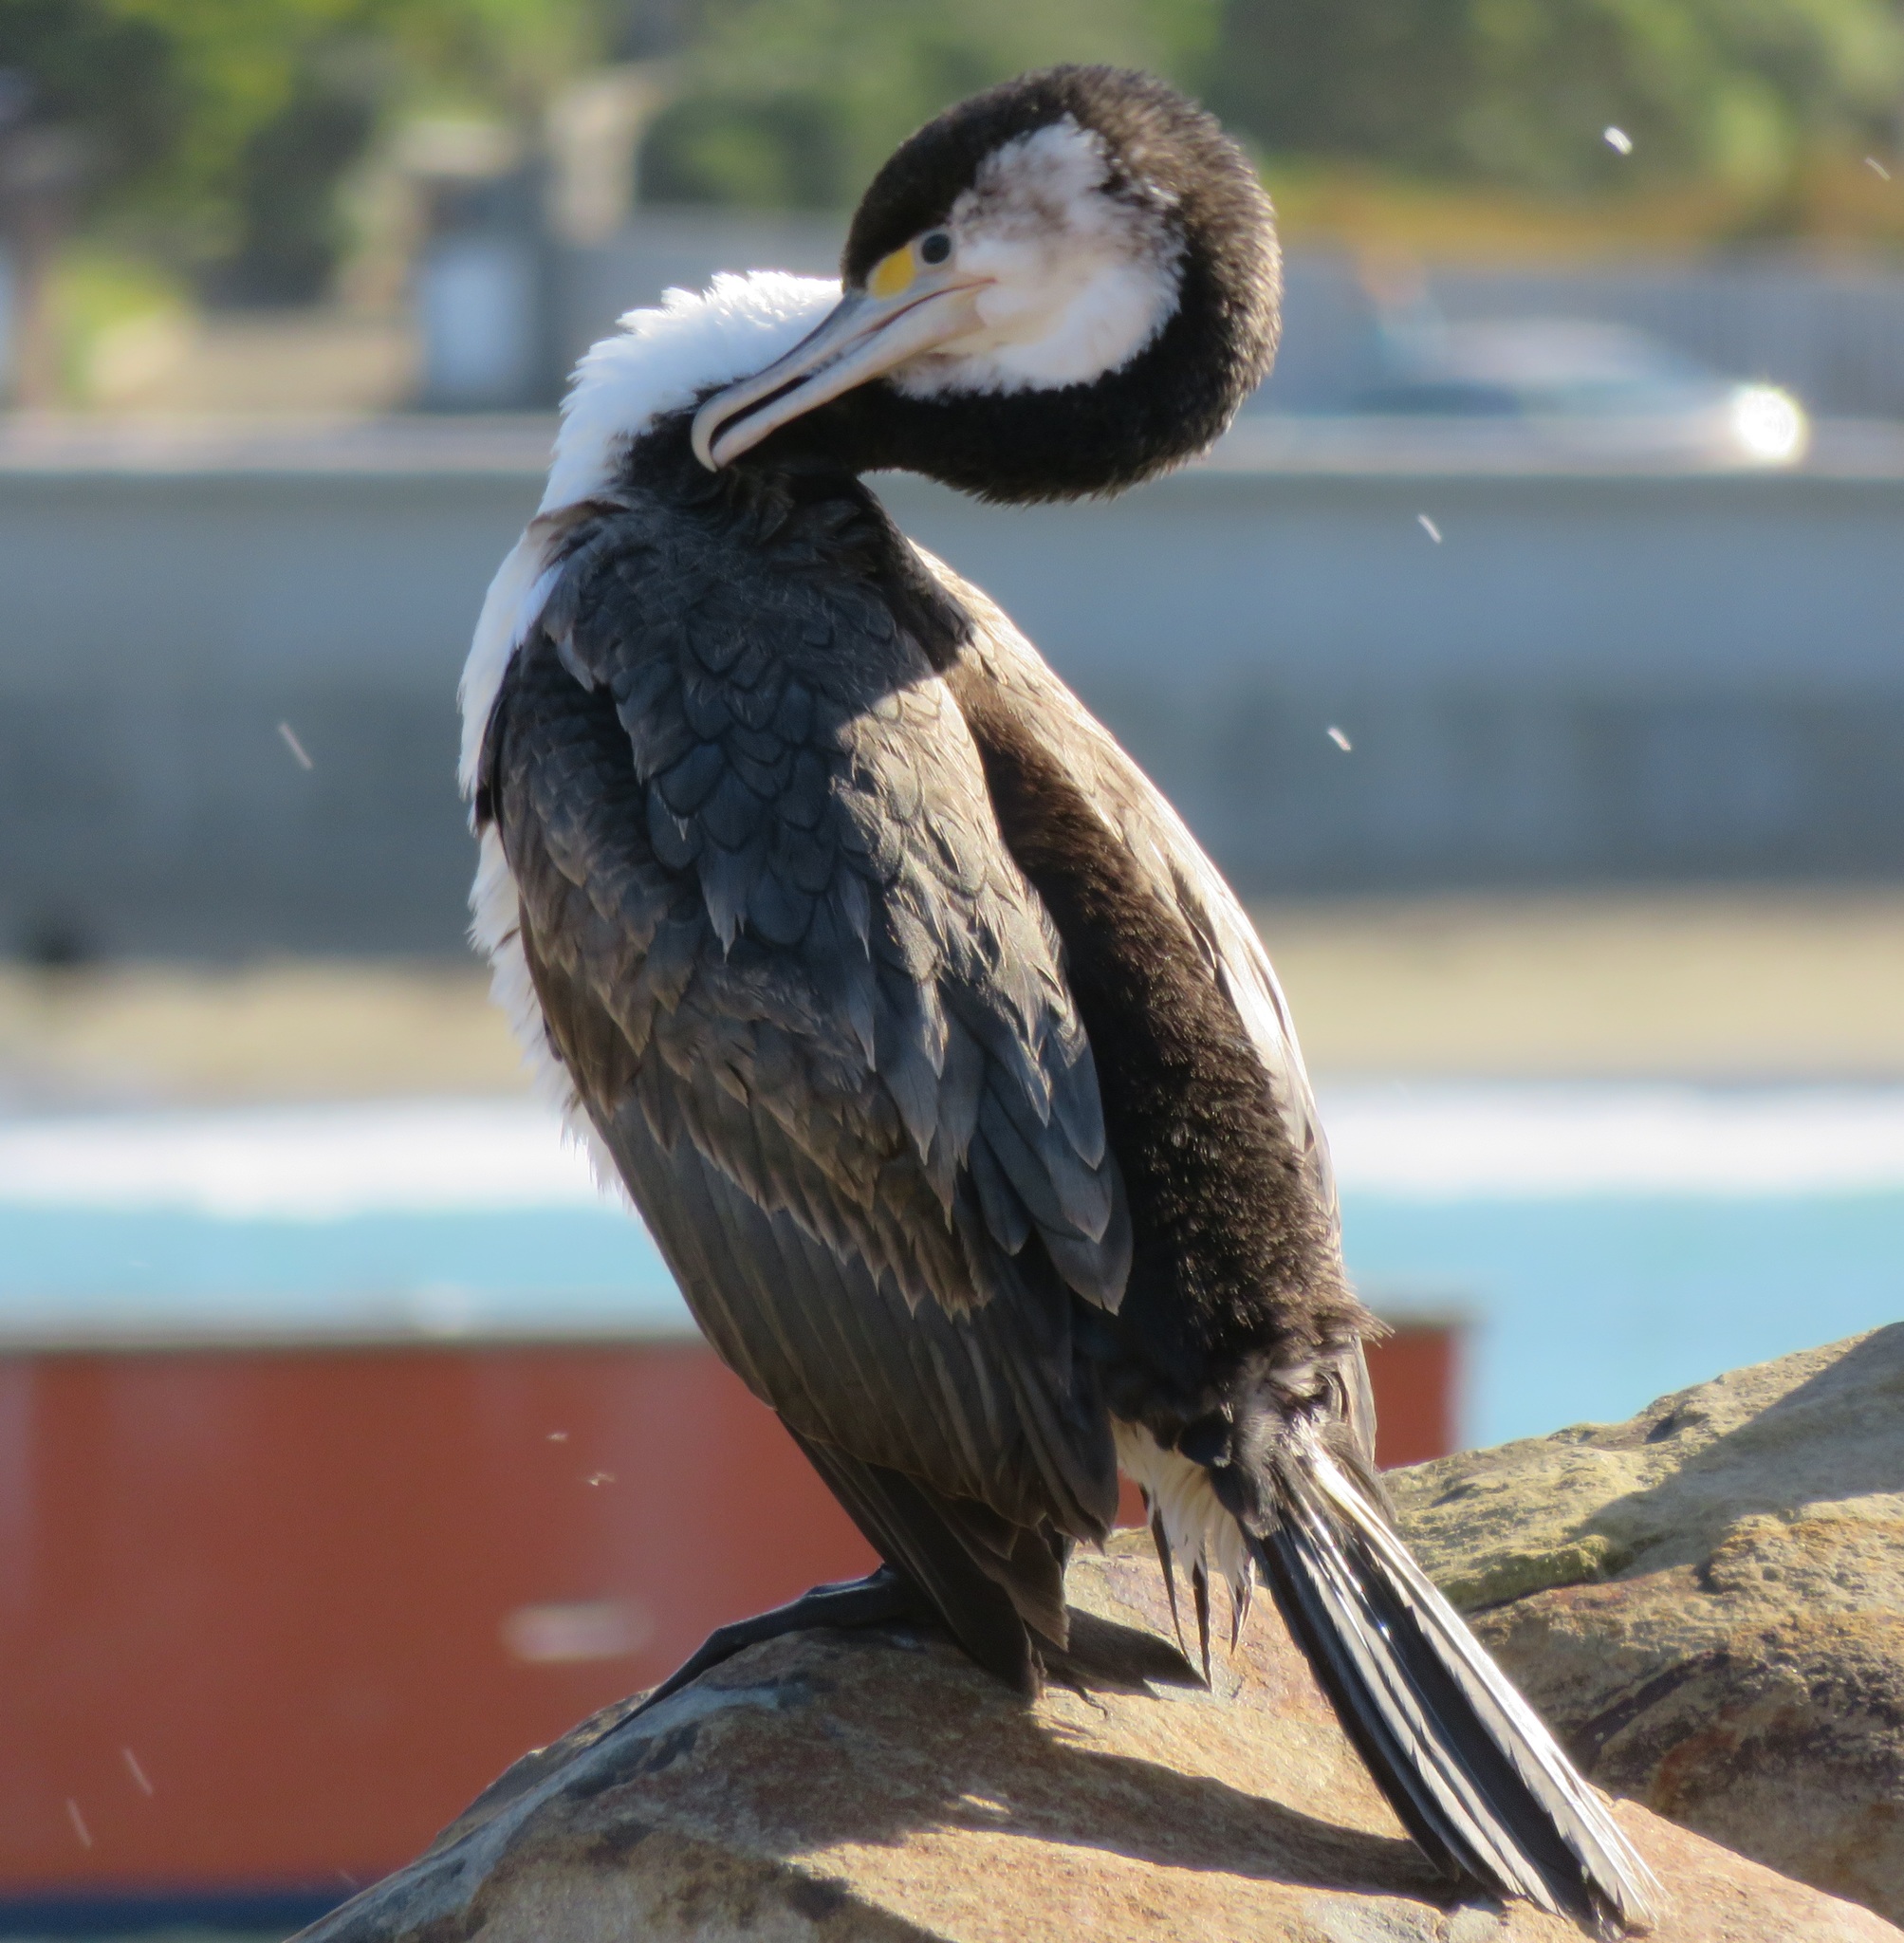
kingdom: Animalia
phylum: Chordata
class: Aves
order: Suliformes
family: Phalacrocoracidae
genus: Phalacrocorax
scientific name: Phalacrocorax varius
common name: Pied cormorant
